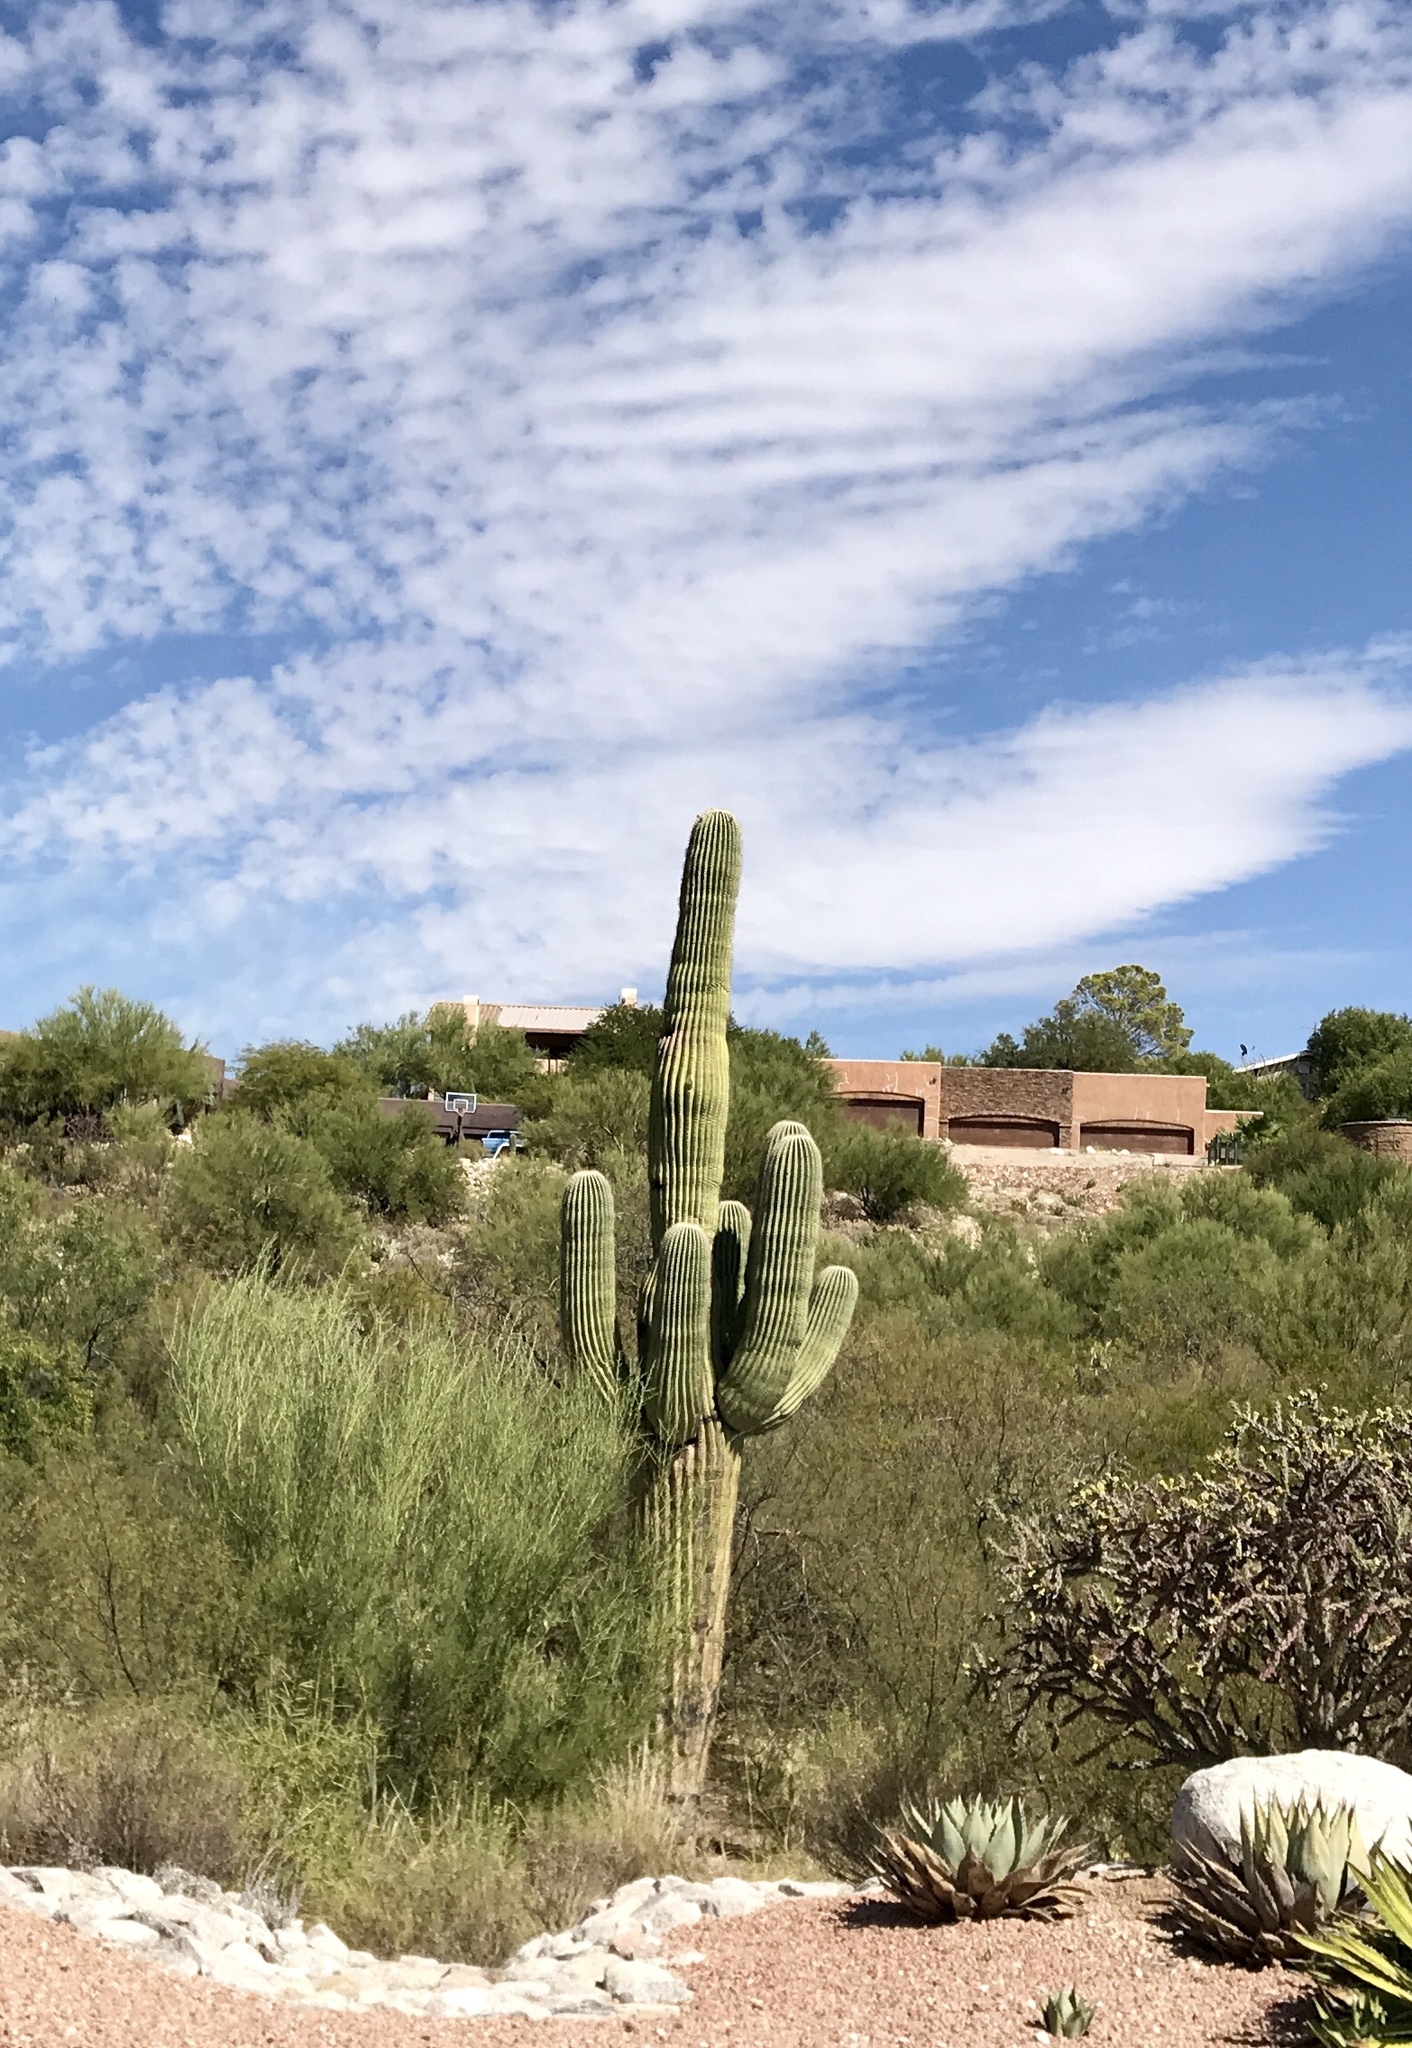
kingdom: Plantae
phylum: Tracheophyta
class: Magnoliopsida
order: Caryophyllales
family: Cactaceae
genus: Carnegiea
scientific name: Carnegiea gigantea
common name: Saguaro
